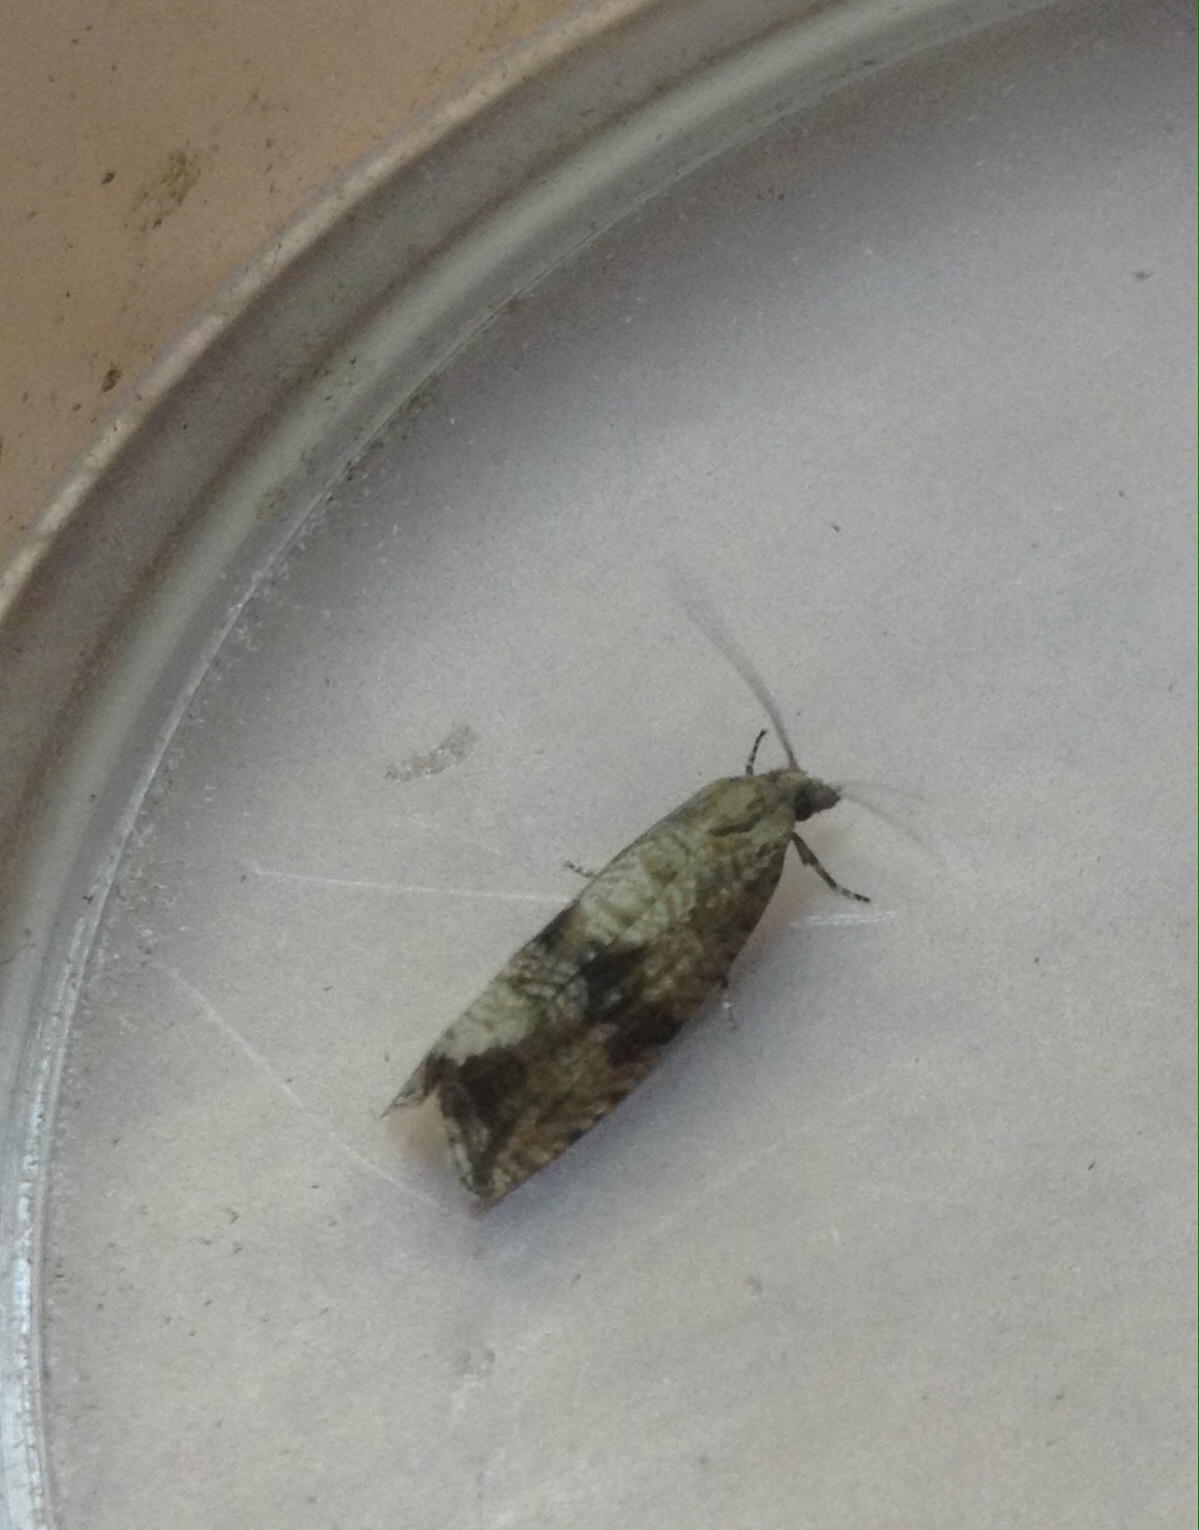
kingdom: Animalia
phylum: Arthropoda
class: Insecta
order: Lepidoptera
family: Tortricidae
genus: Celypha
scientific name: Celypha striana
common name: Barred marble
